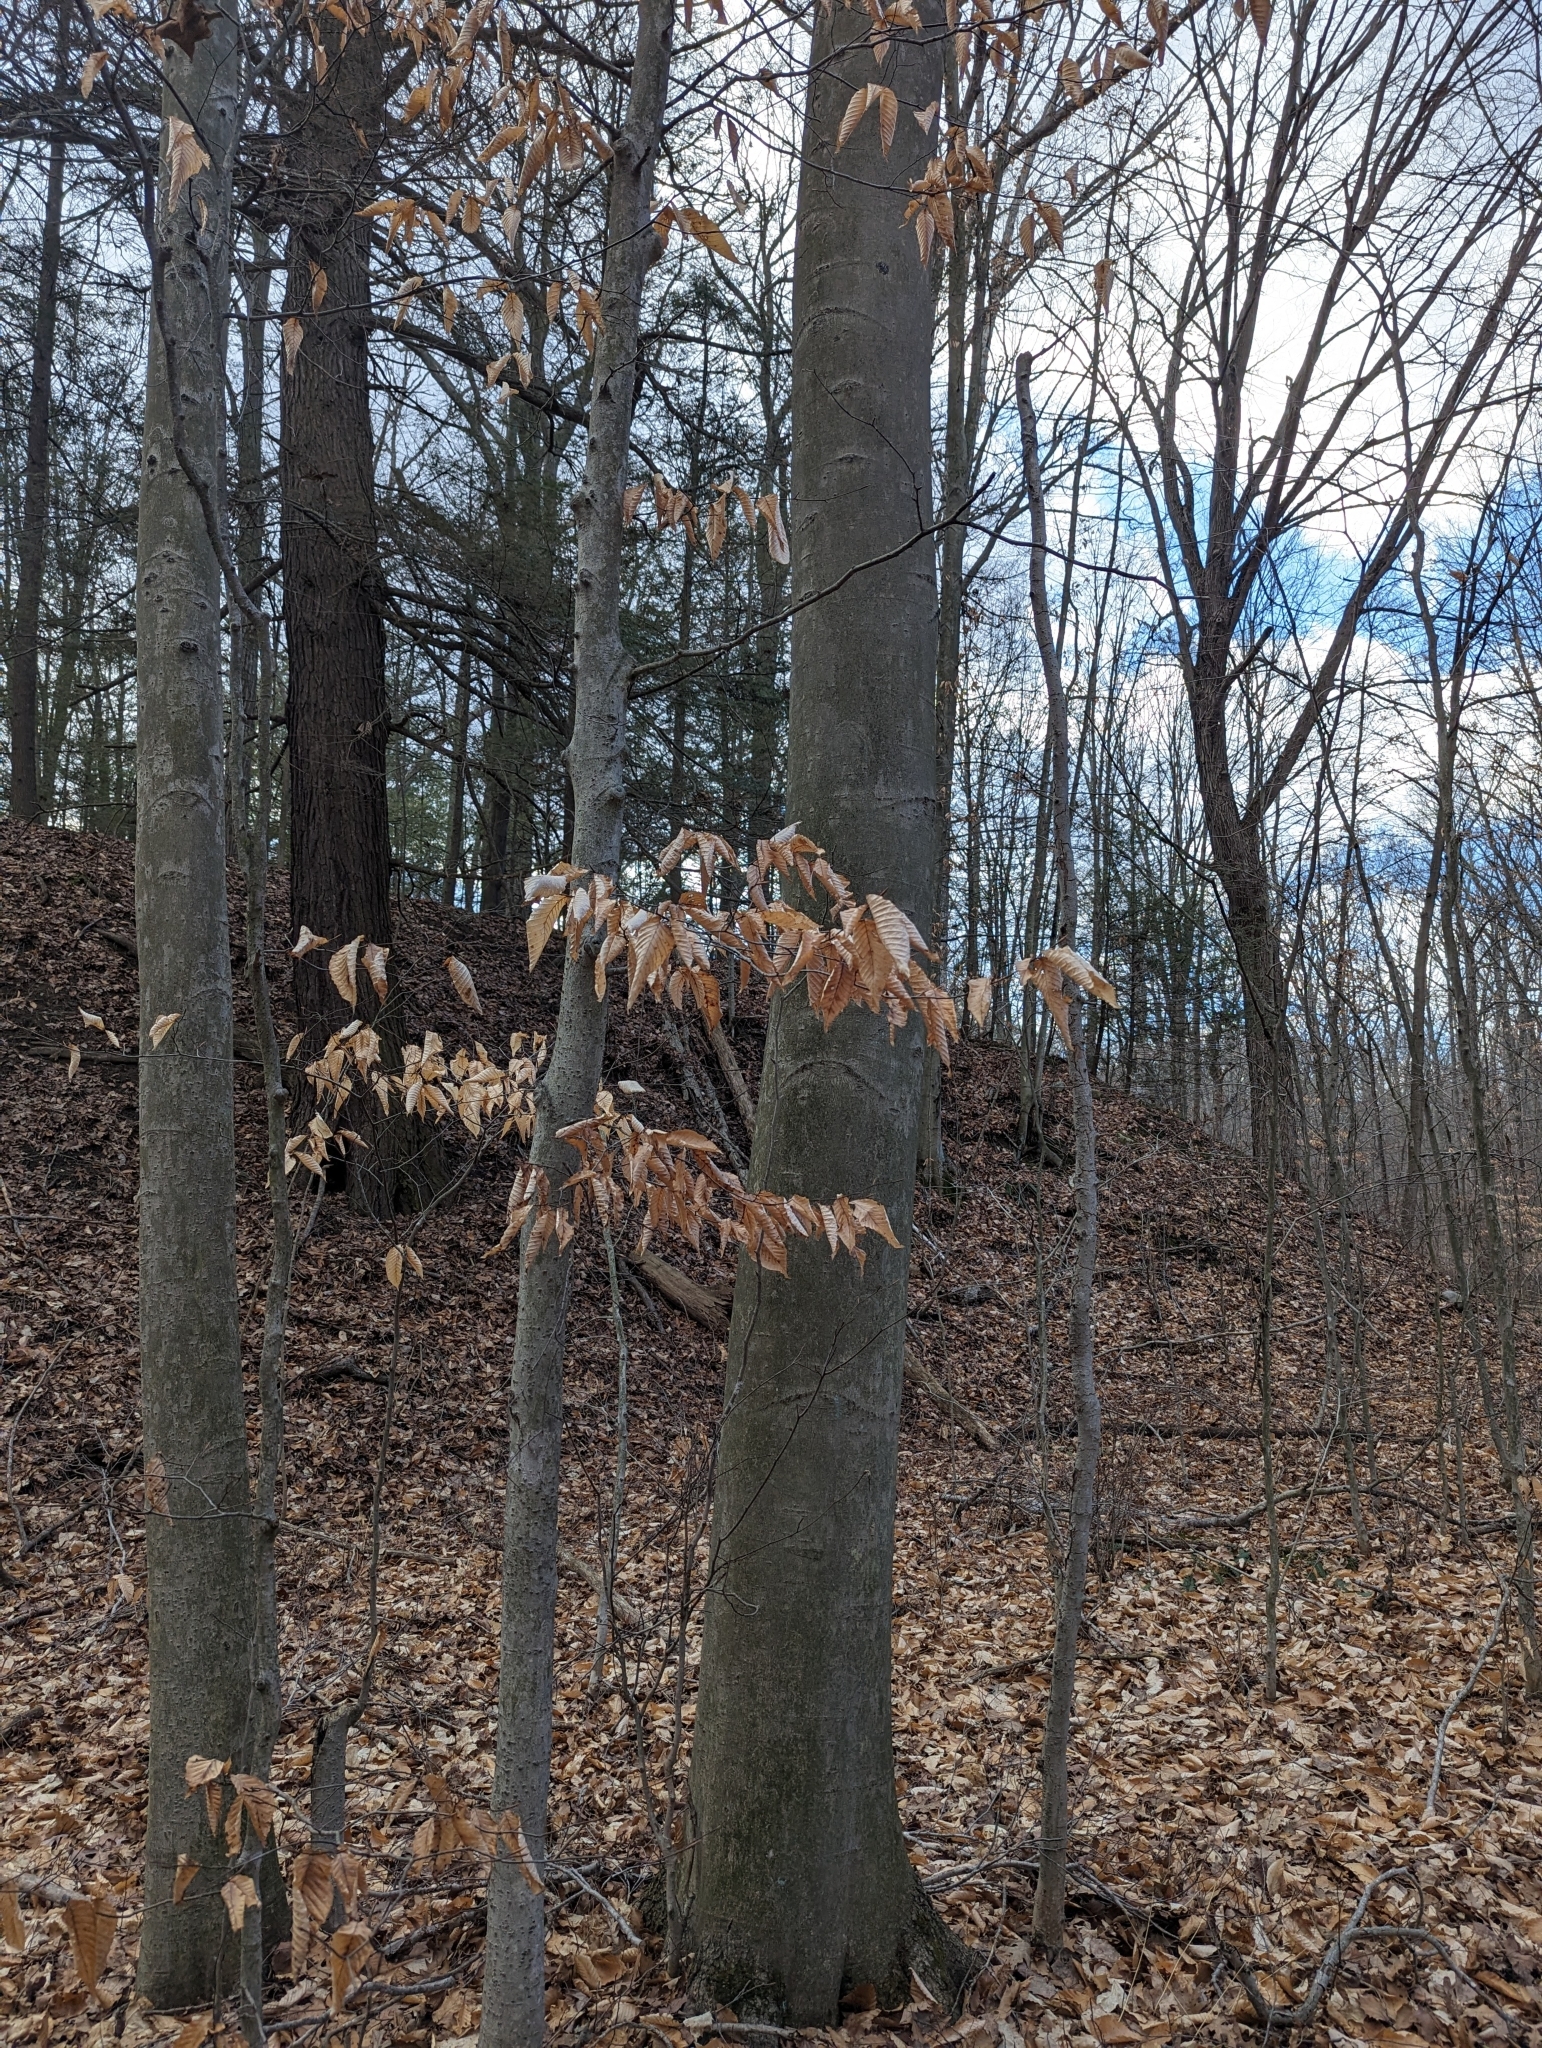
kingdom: Plantae
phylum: Tracheophyta
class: Magnoliopsida
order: Fagales
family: Fagaceae
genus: Fagus
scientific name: Fagus grandifolia
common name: American beech
